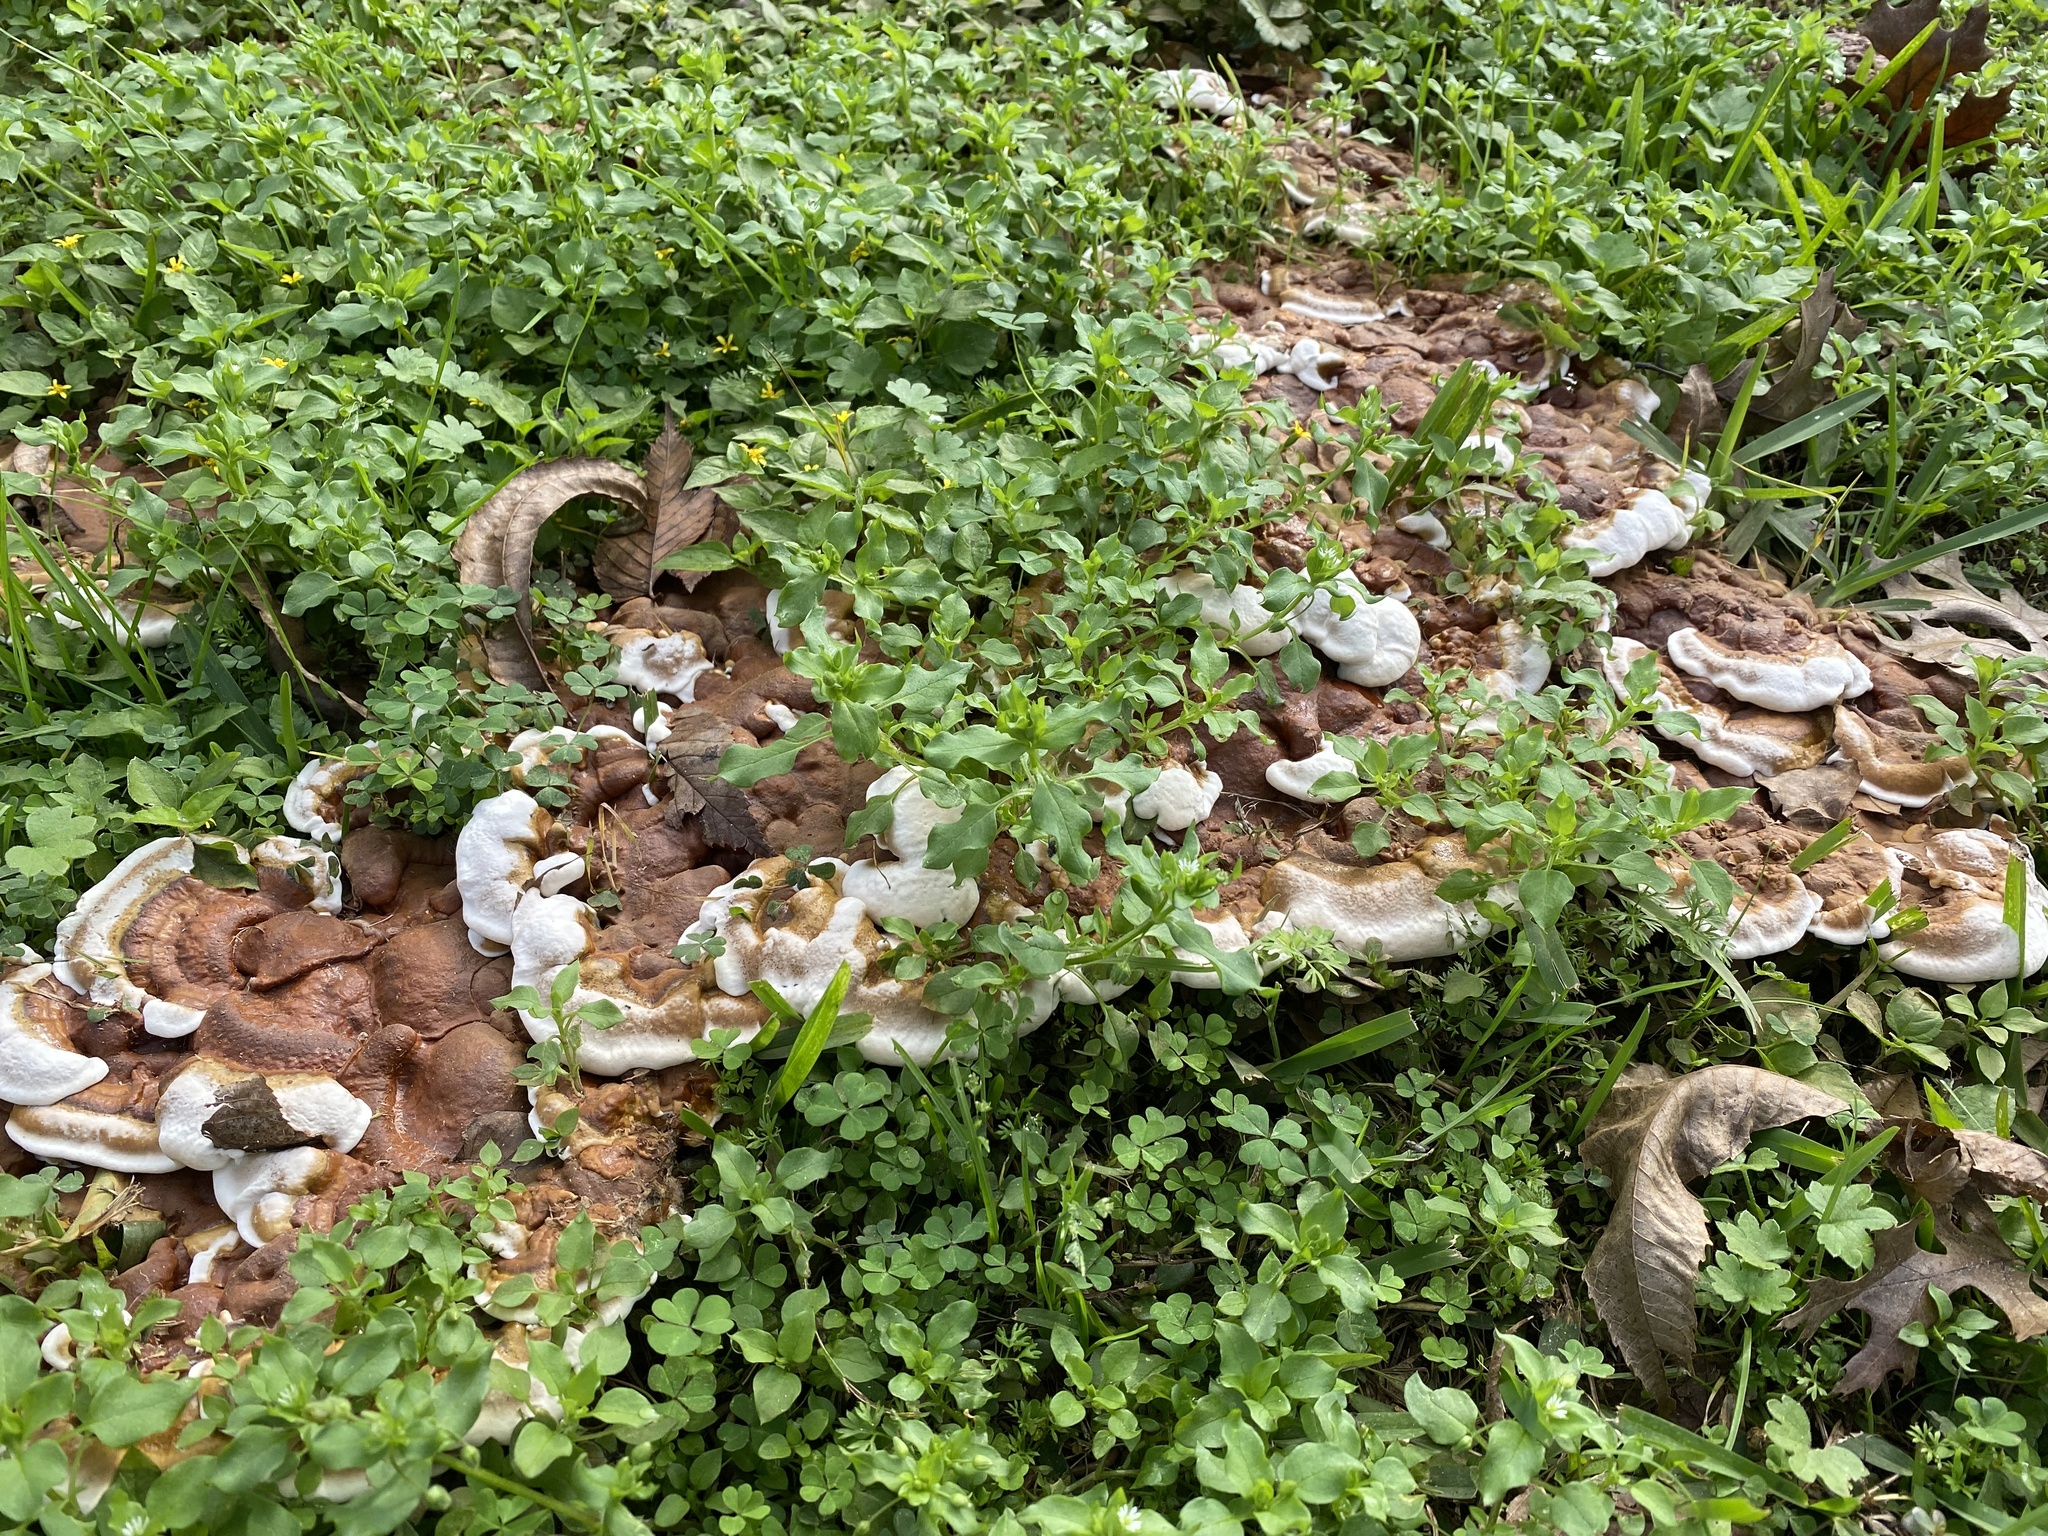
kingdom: Fungi
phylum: Basidiomycota
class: Agaricomycetes
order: Polyporales
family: Polyporaceae
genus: Ganoderma
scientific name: Ganoderma resinaceum
